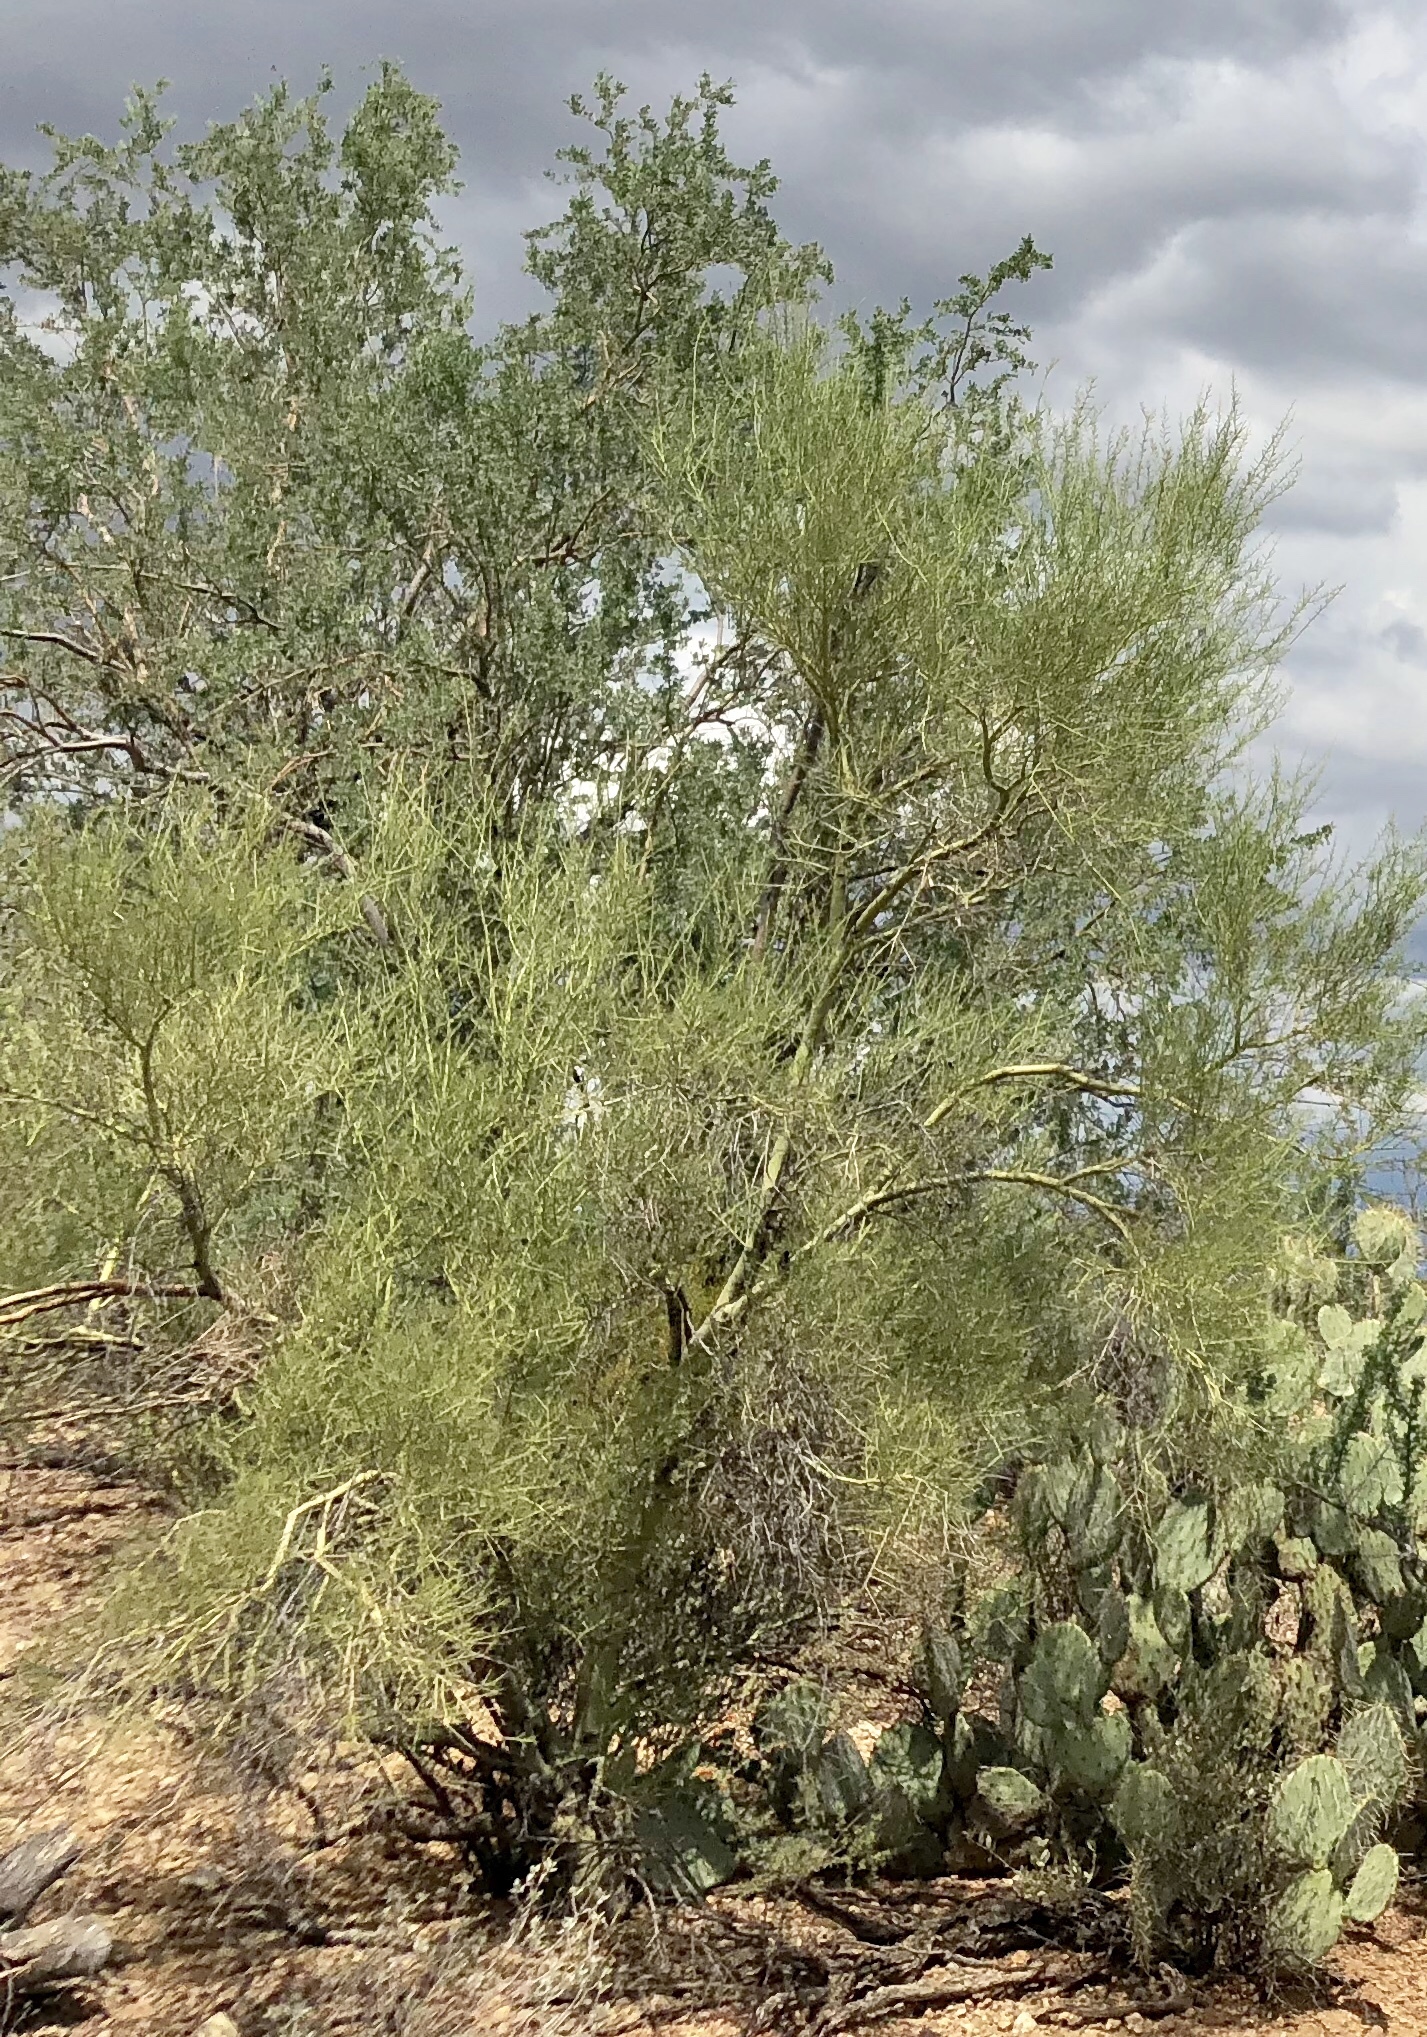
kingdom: Plantae
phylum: Tracheophyta
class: Magnoliopsida
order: Fabales
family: Fabaceae
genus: Parkinsonia
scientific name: Parkinsonia microphylla
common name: Yellow paloverde
